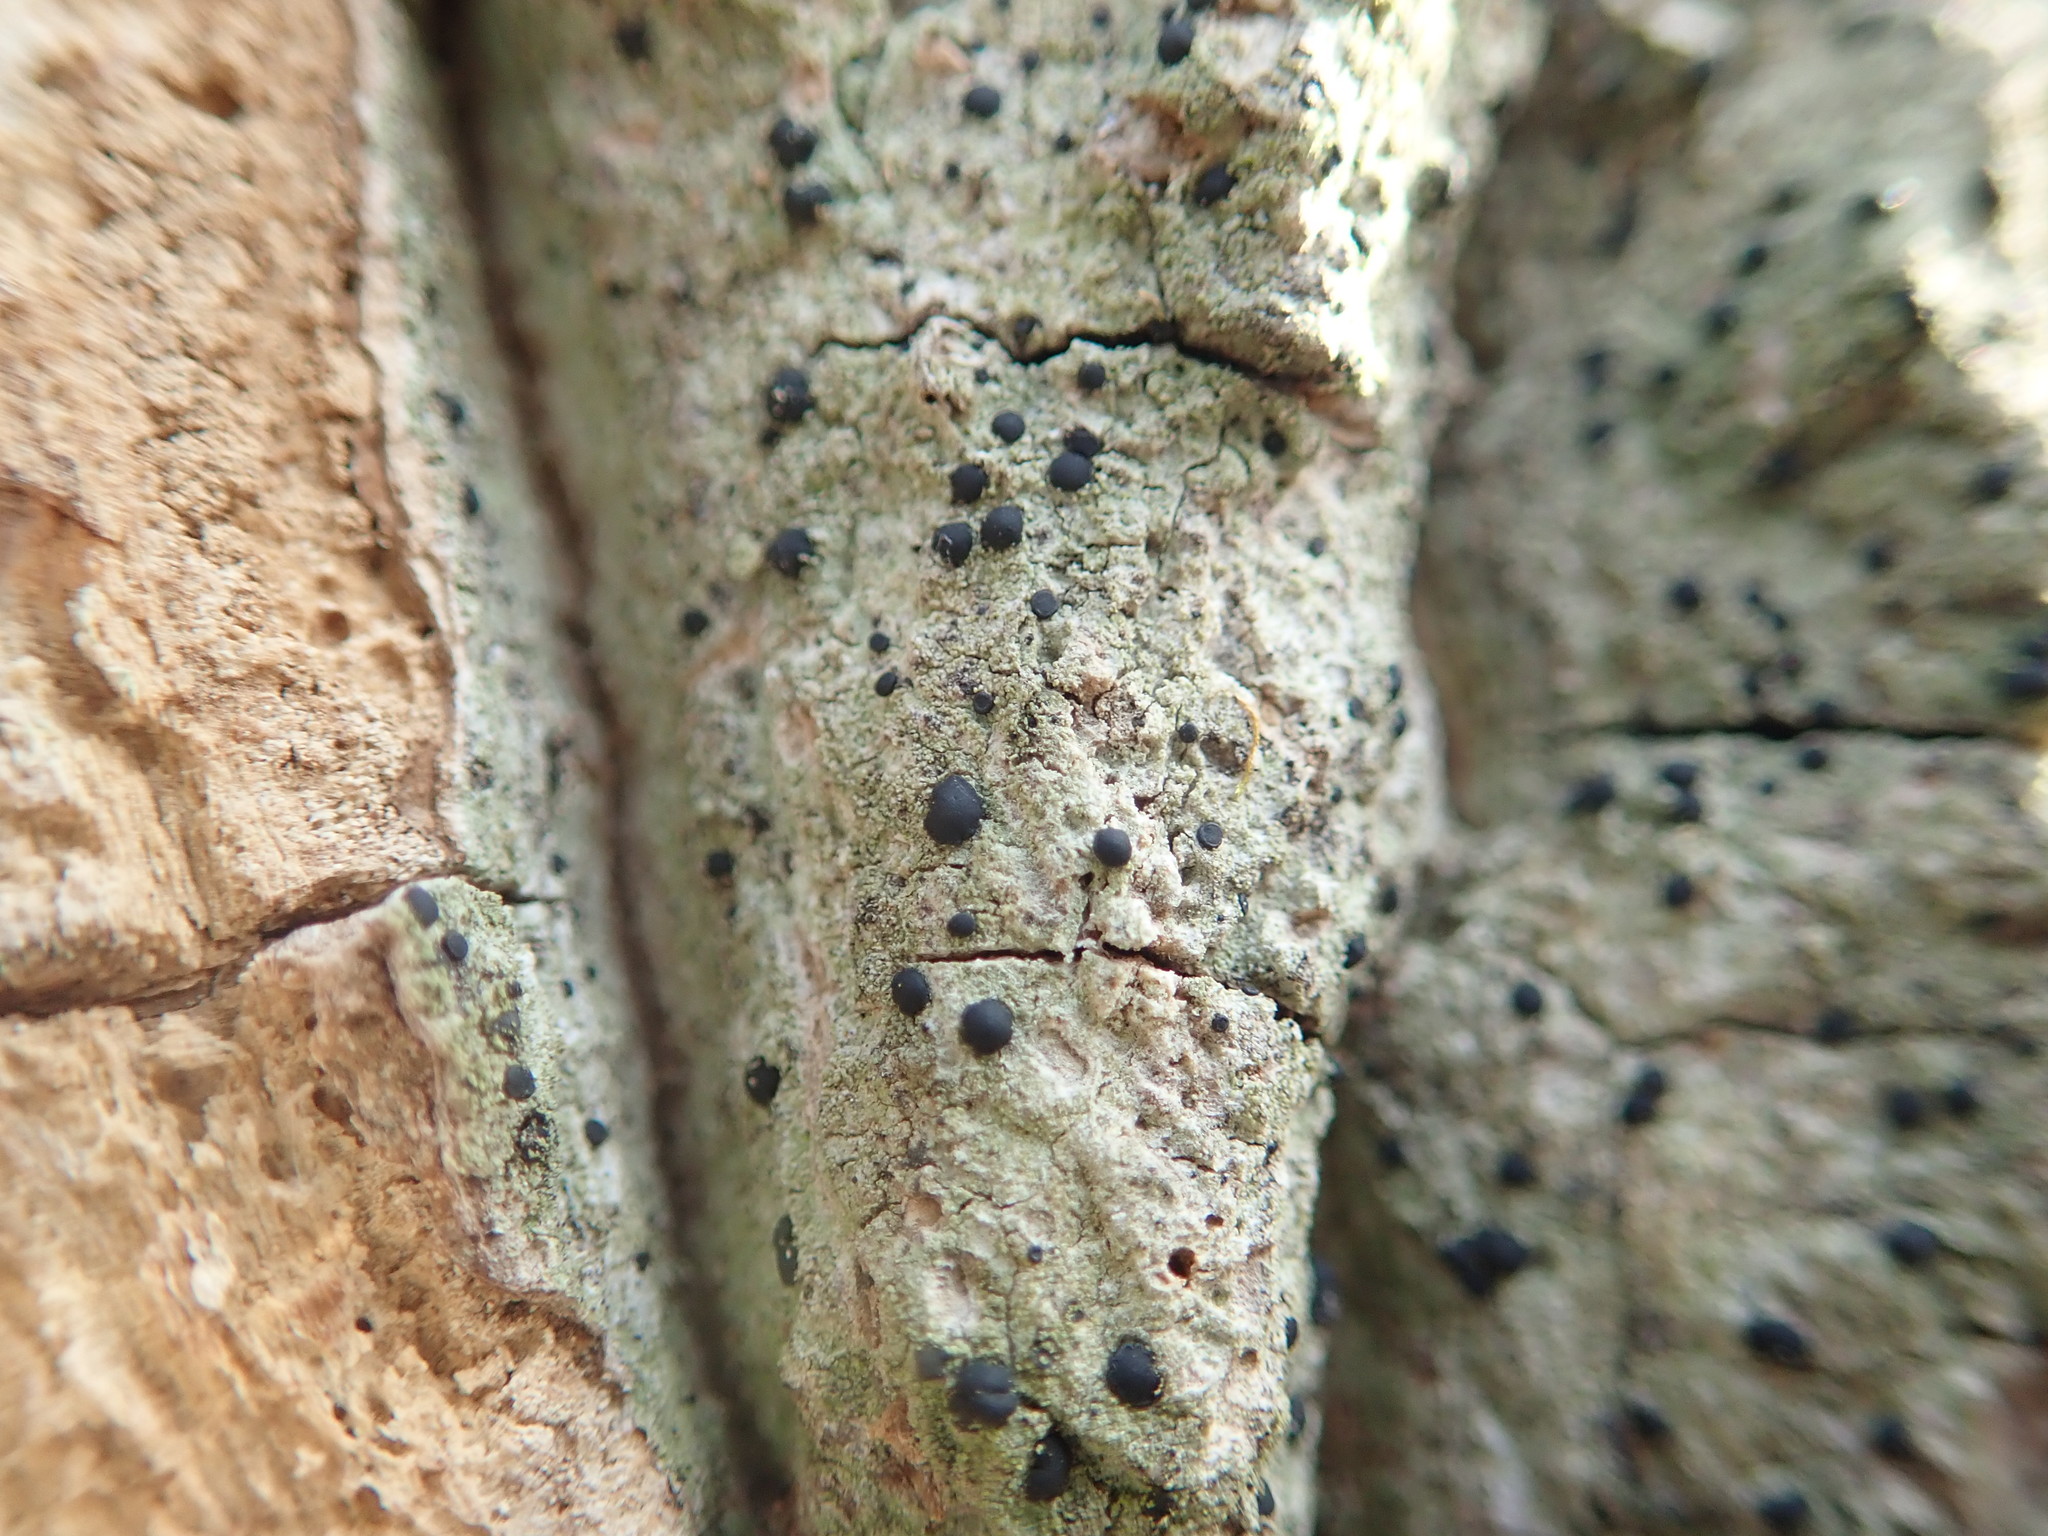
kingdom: Fungi
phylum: Ascomycota
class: Lecanoromycetes
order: Lecanorales
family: Ramalinaceae
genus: Bacidia
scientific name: Bacidia schweinitzii
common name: Surprise lichen
